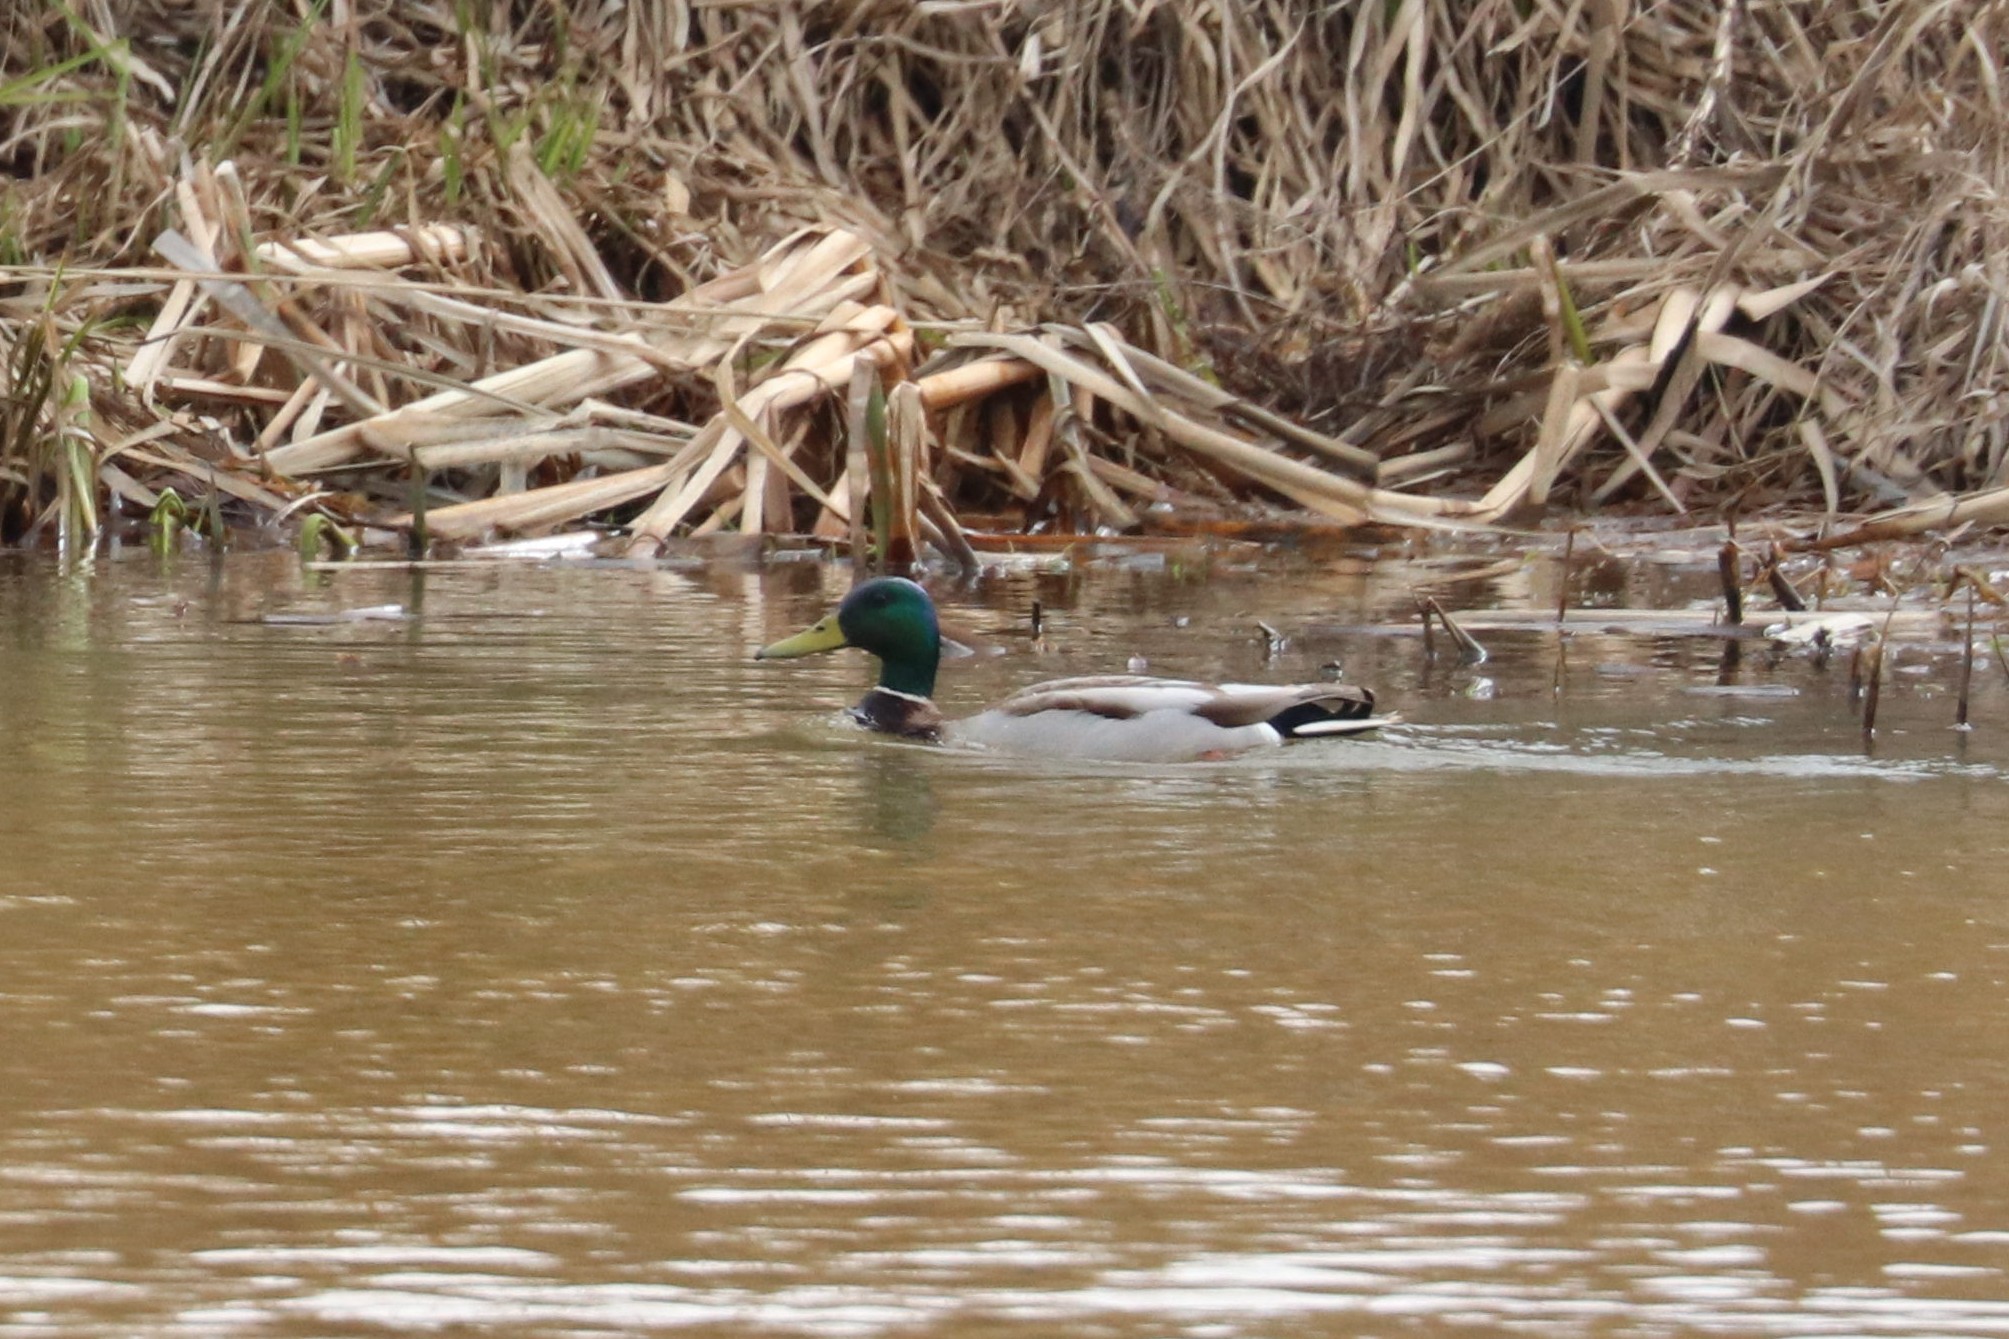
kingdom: Animalia
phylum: Chordata
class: Aves
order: Anseriformes
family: Anatidae
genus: Anas
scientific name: Anas platyrhynchos
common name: Mallard
